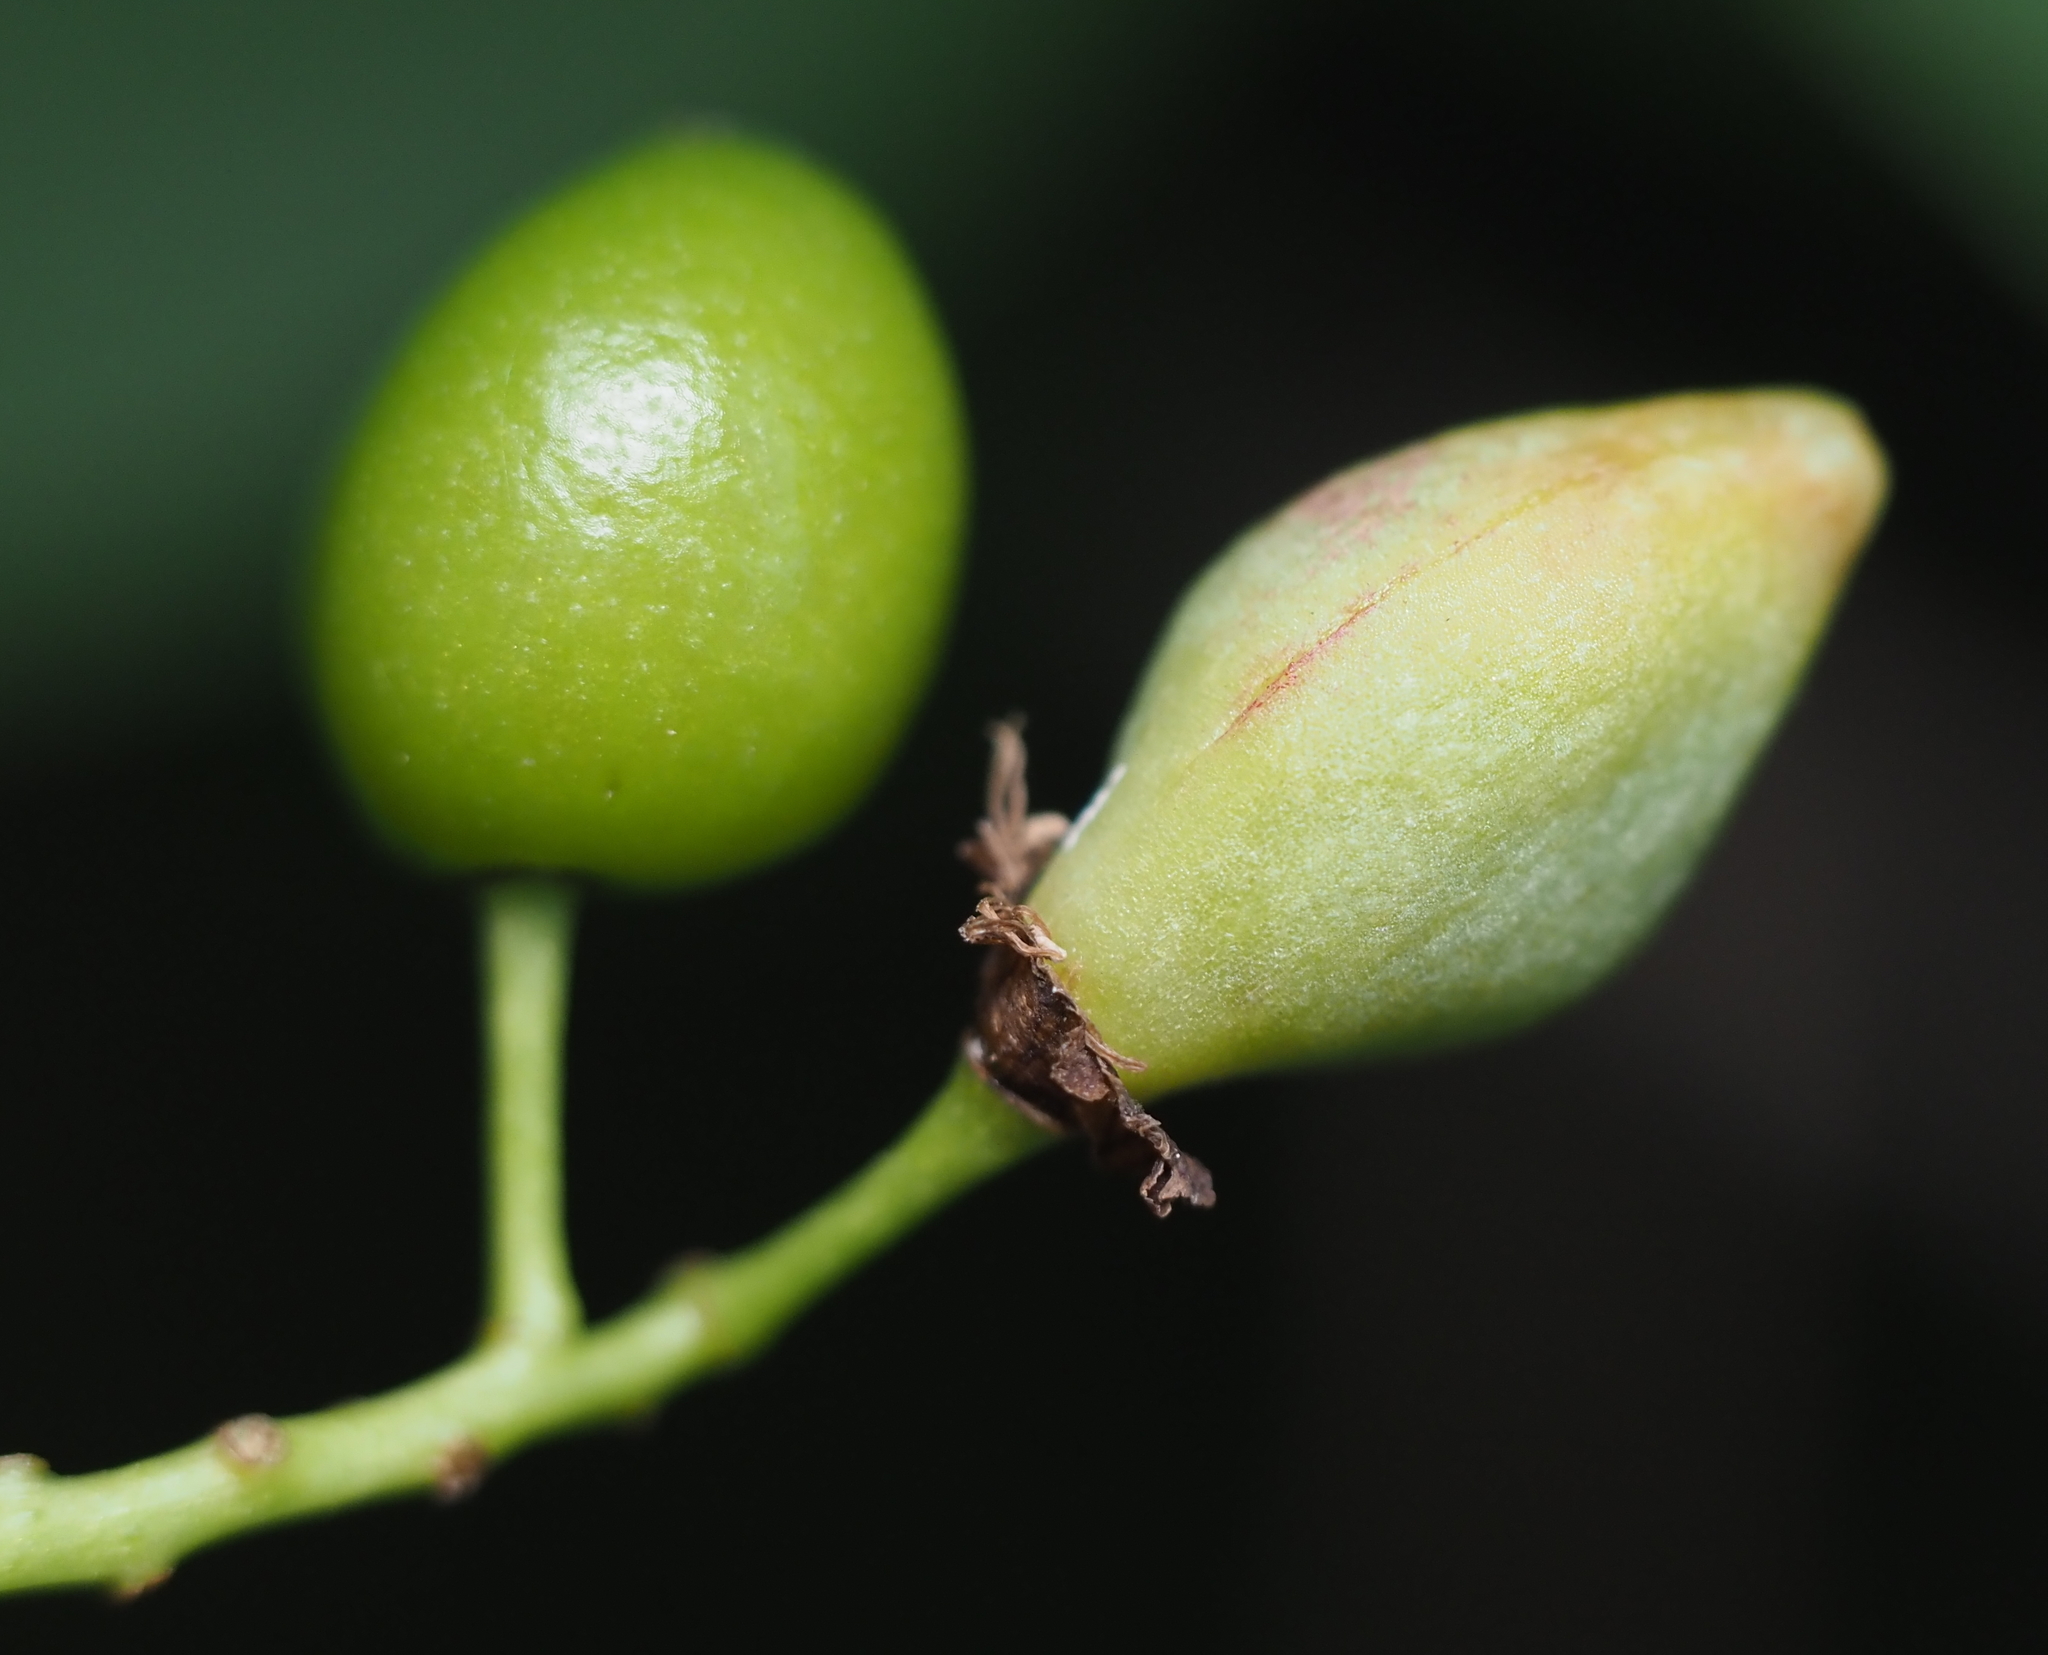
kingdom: Animalia
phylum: Arthropoda
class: Insecta
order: Diptera
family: Cecidomyiidae
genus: Contarinia
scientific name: Contarinia virginianiae
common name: Chokecherry midge
